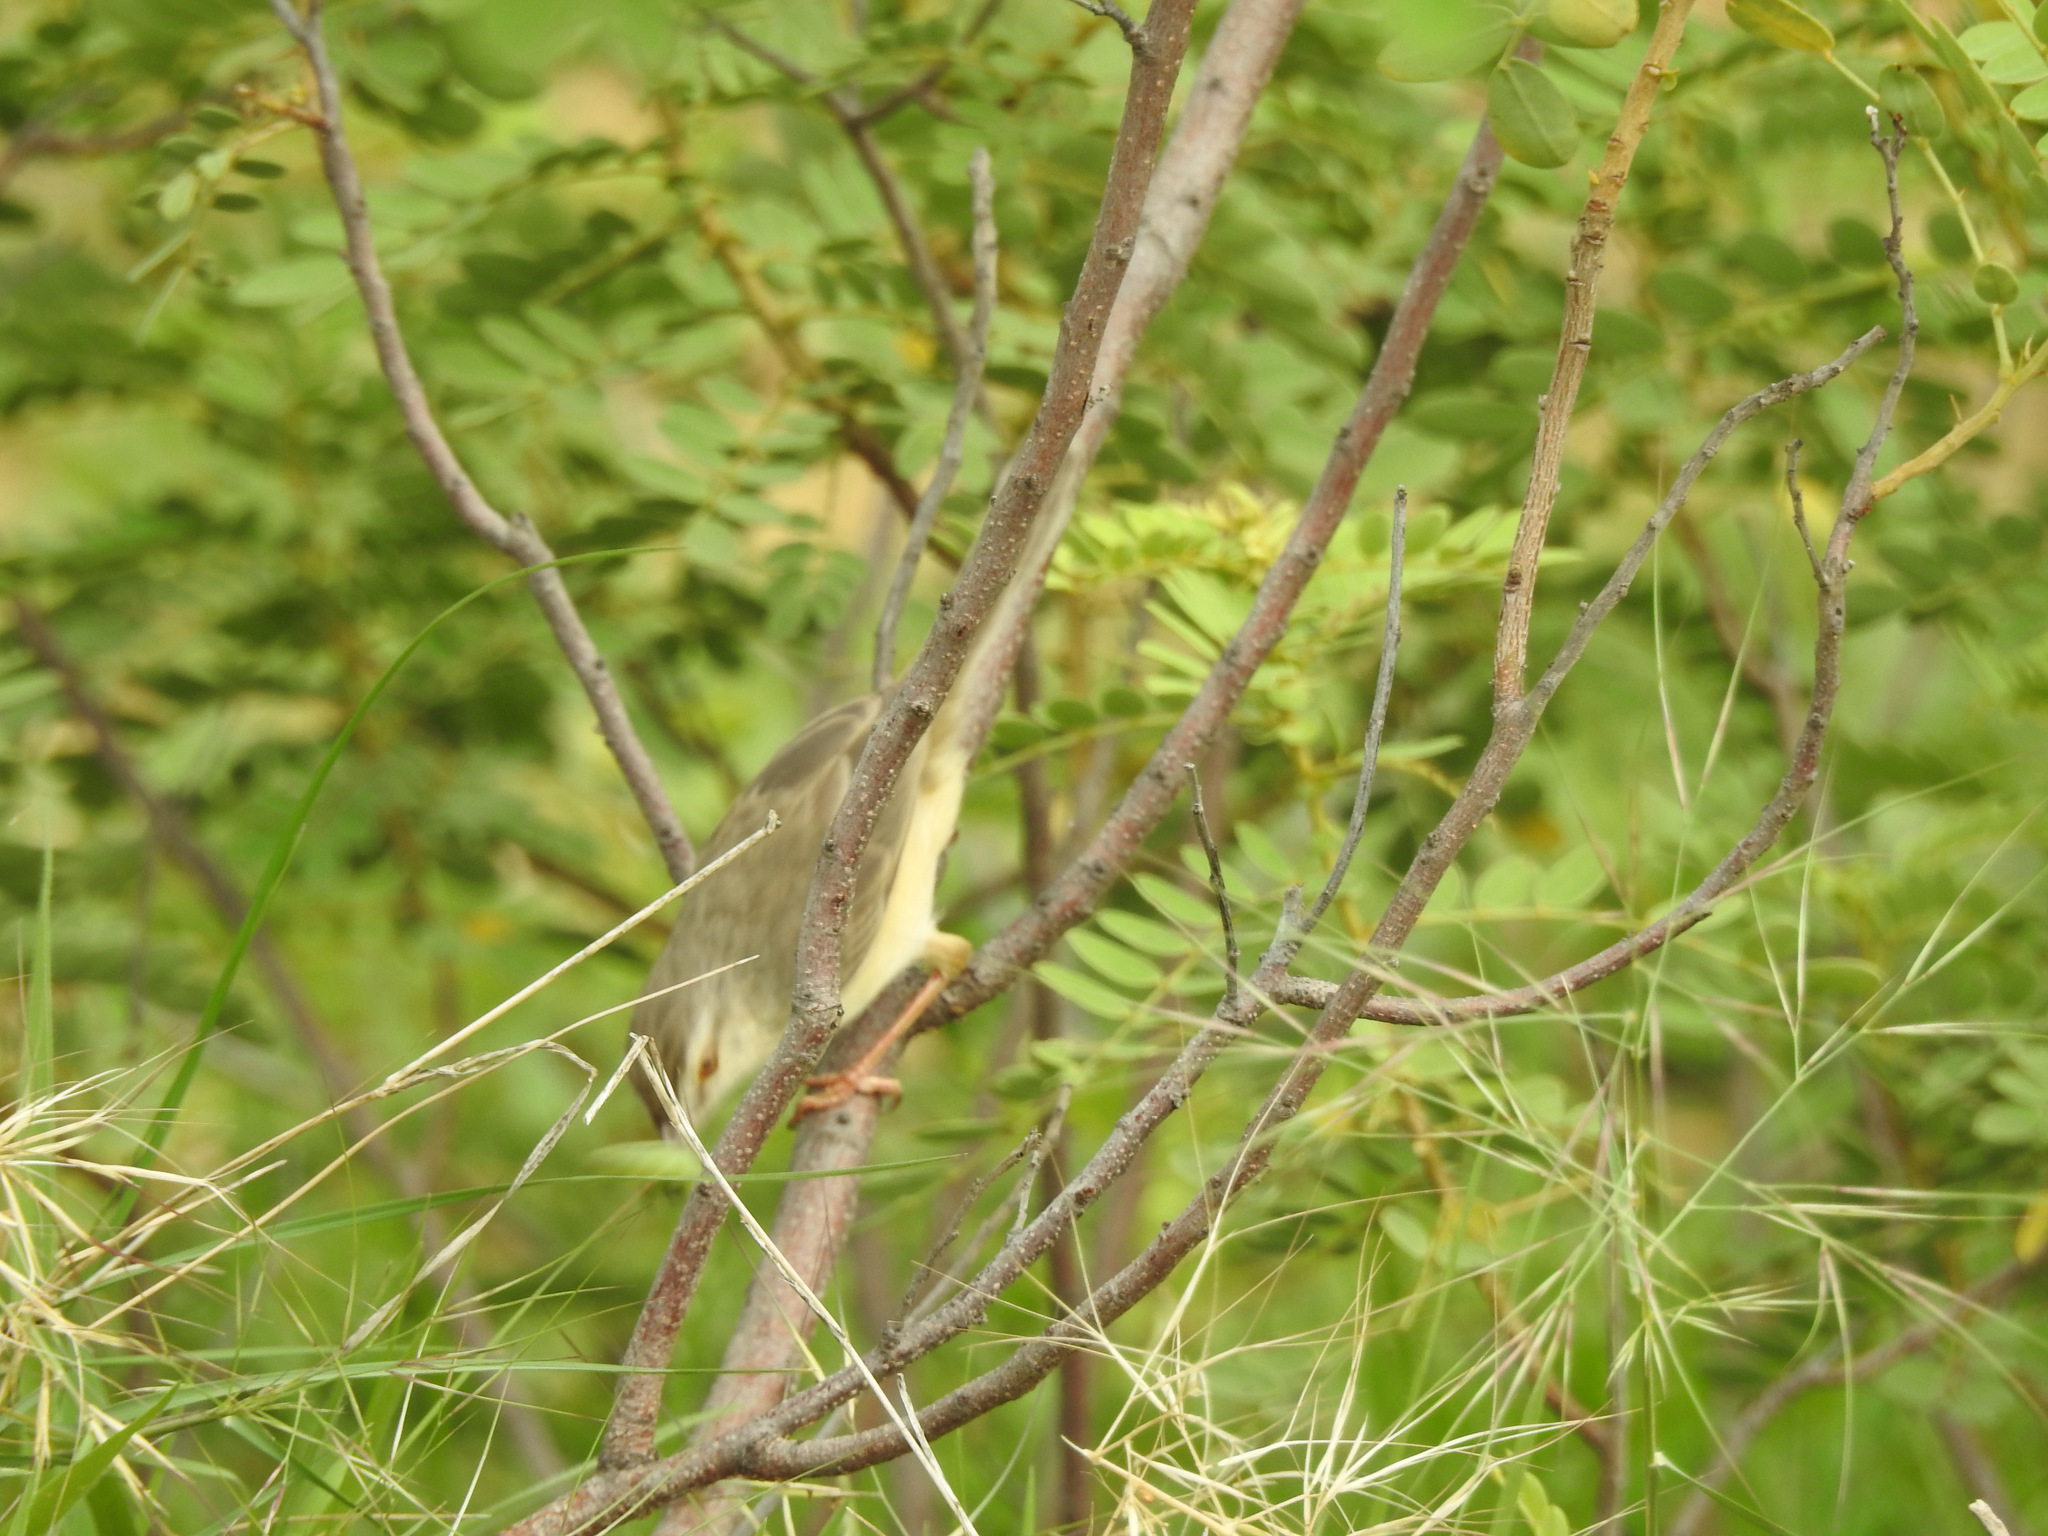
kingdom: Animalia
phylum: Chordata
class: Aves
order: Passeriformes
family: Cisticolidae
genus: Prinia
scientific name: Prinia inornata
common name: Plain prinia
